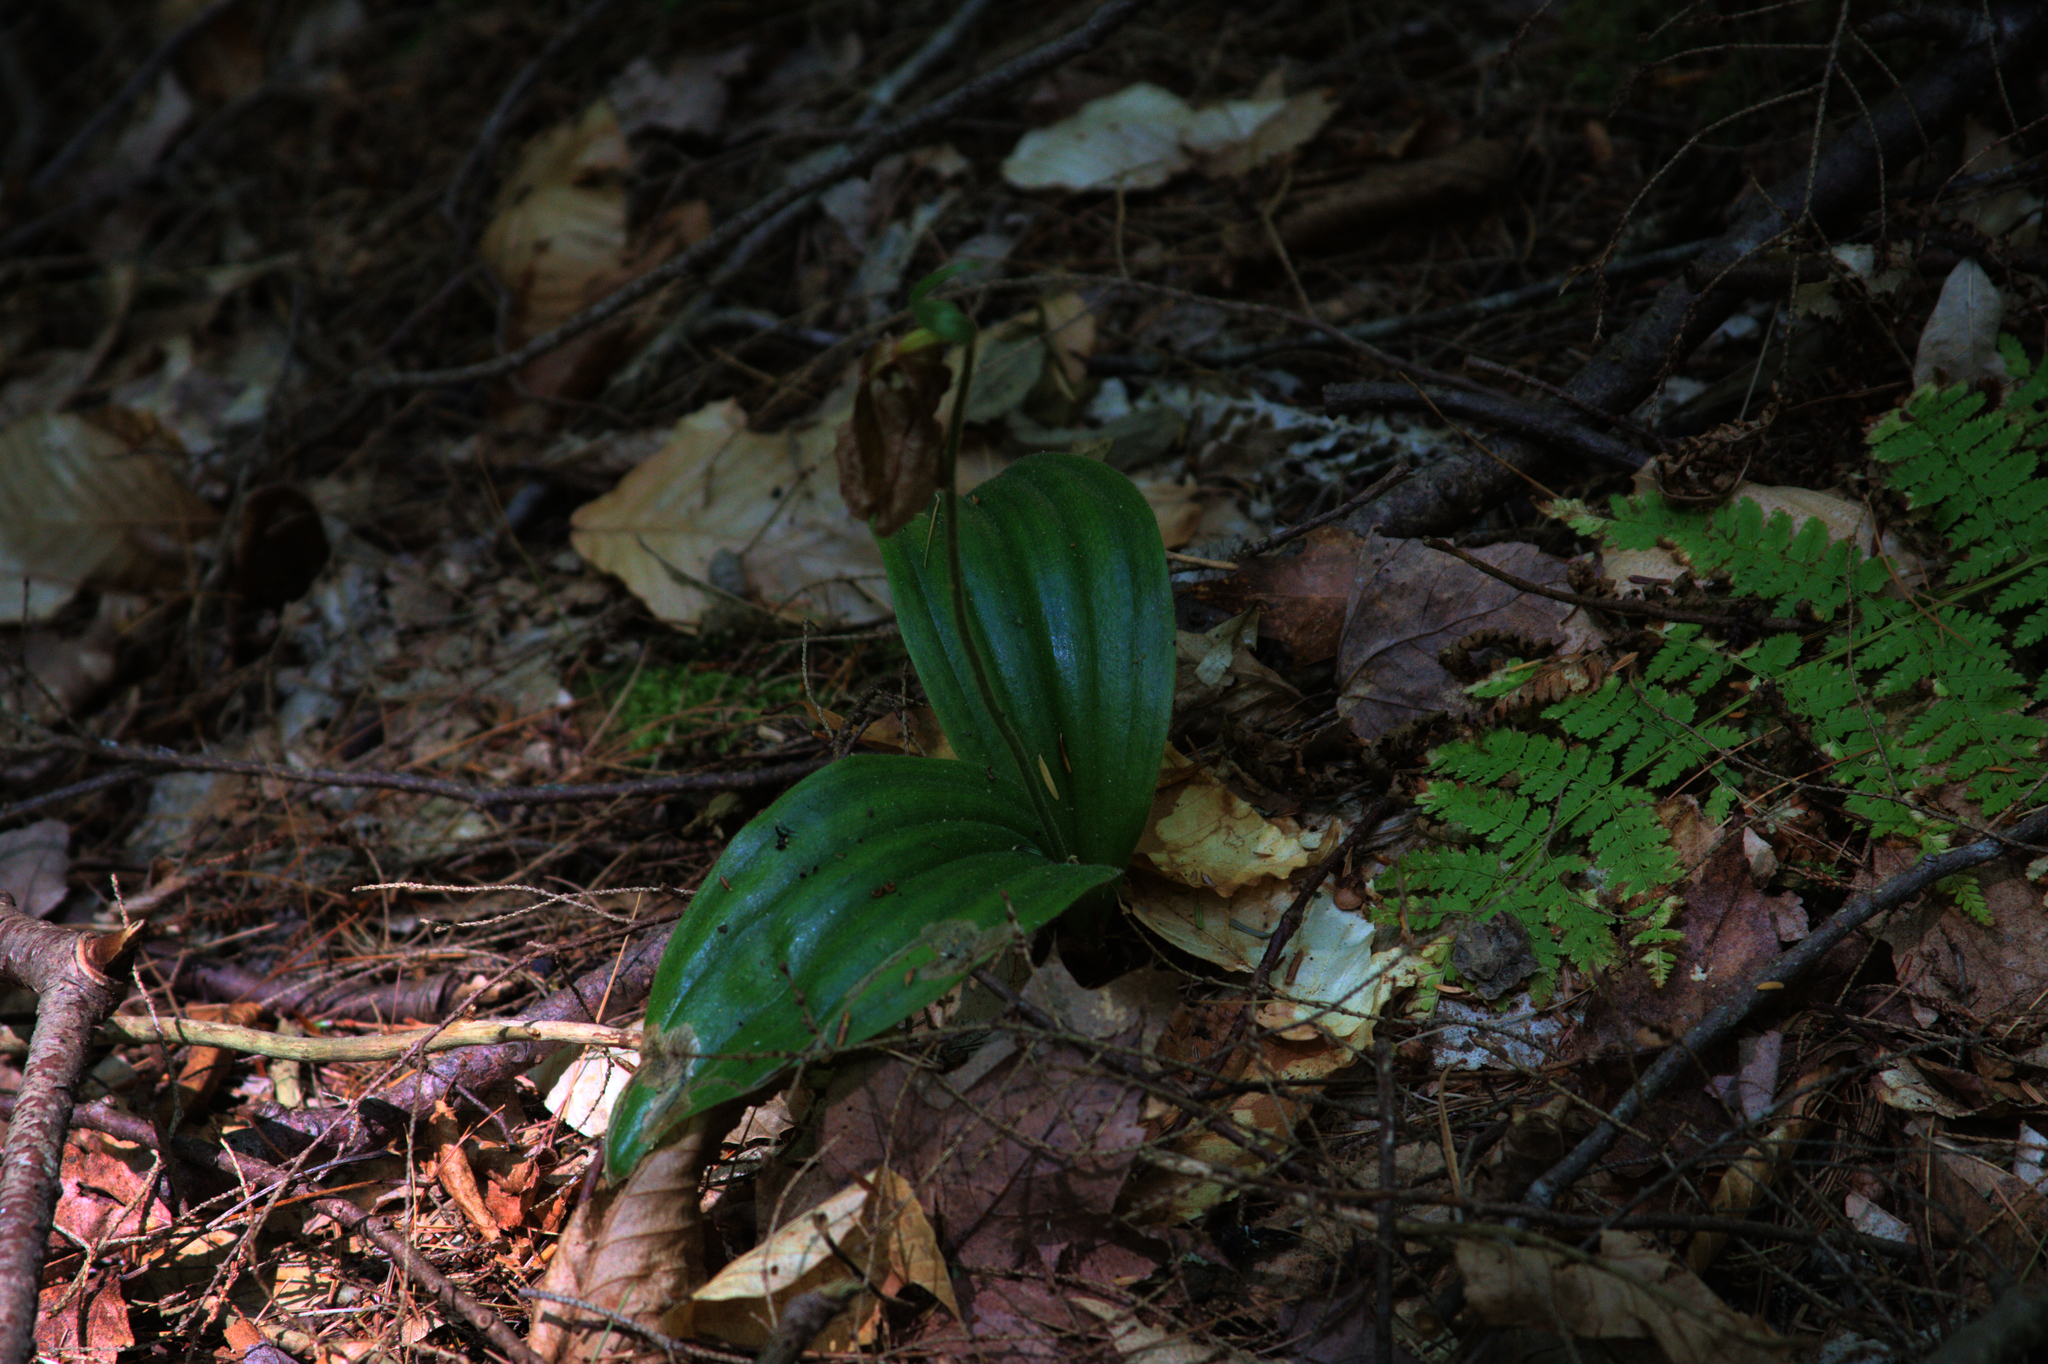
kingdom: Plantae
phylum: Tracheophyta
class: Liliopsida
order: Asparagales
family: Orchidaceae
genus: Cypripedium
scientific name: Cypripedium acaule
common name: Pink lady's-slipper
